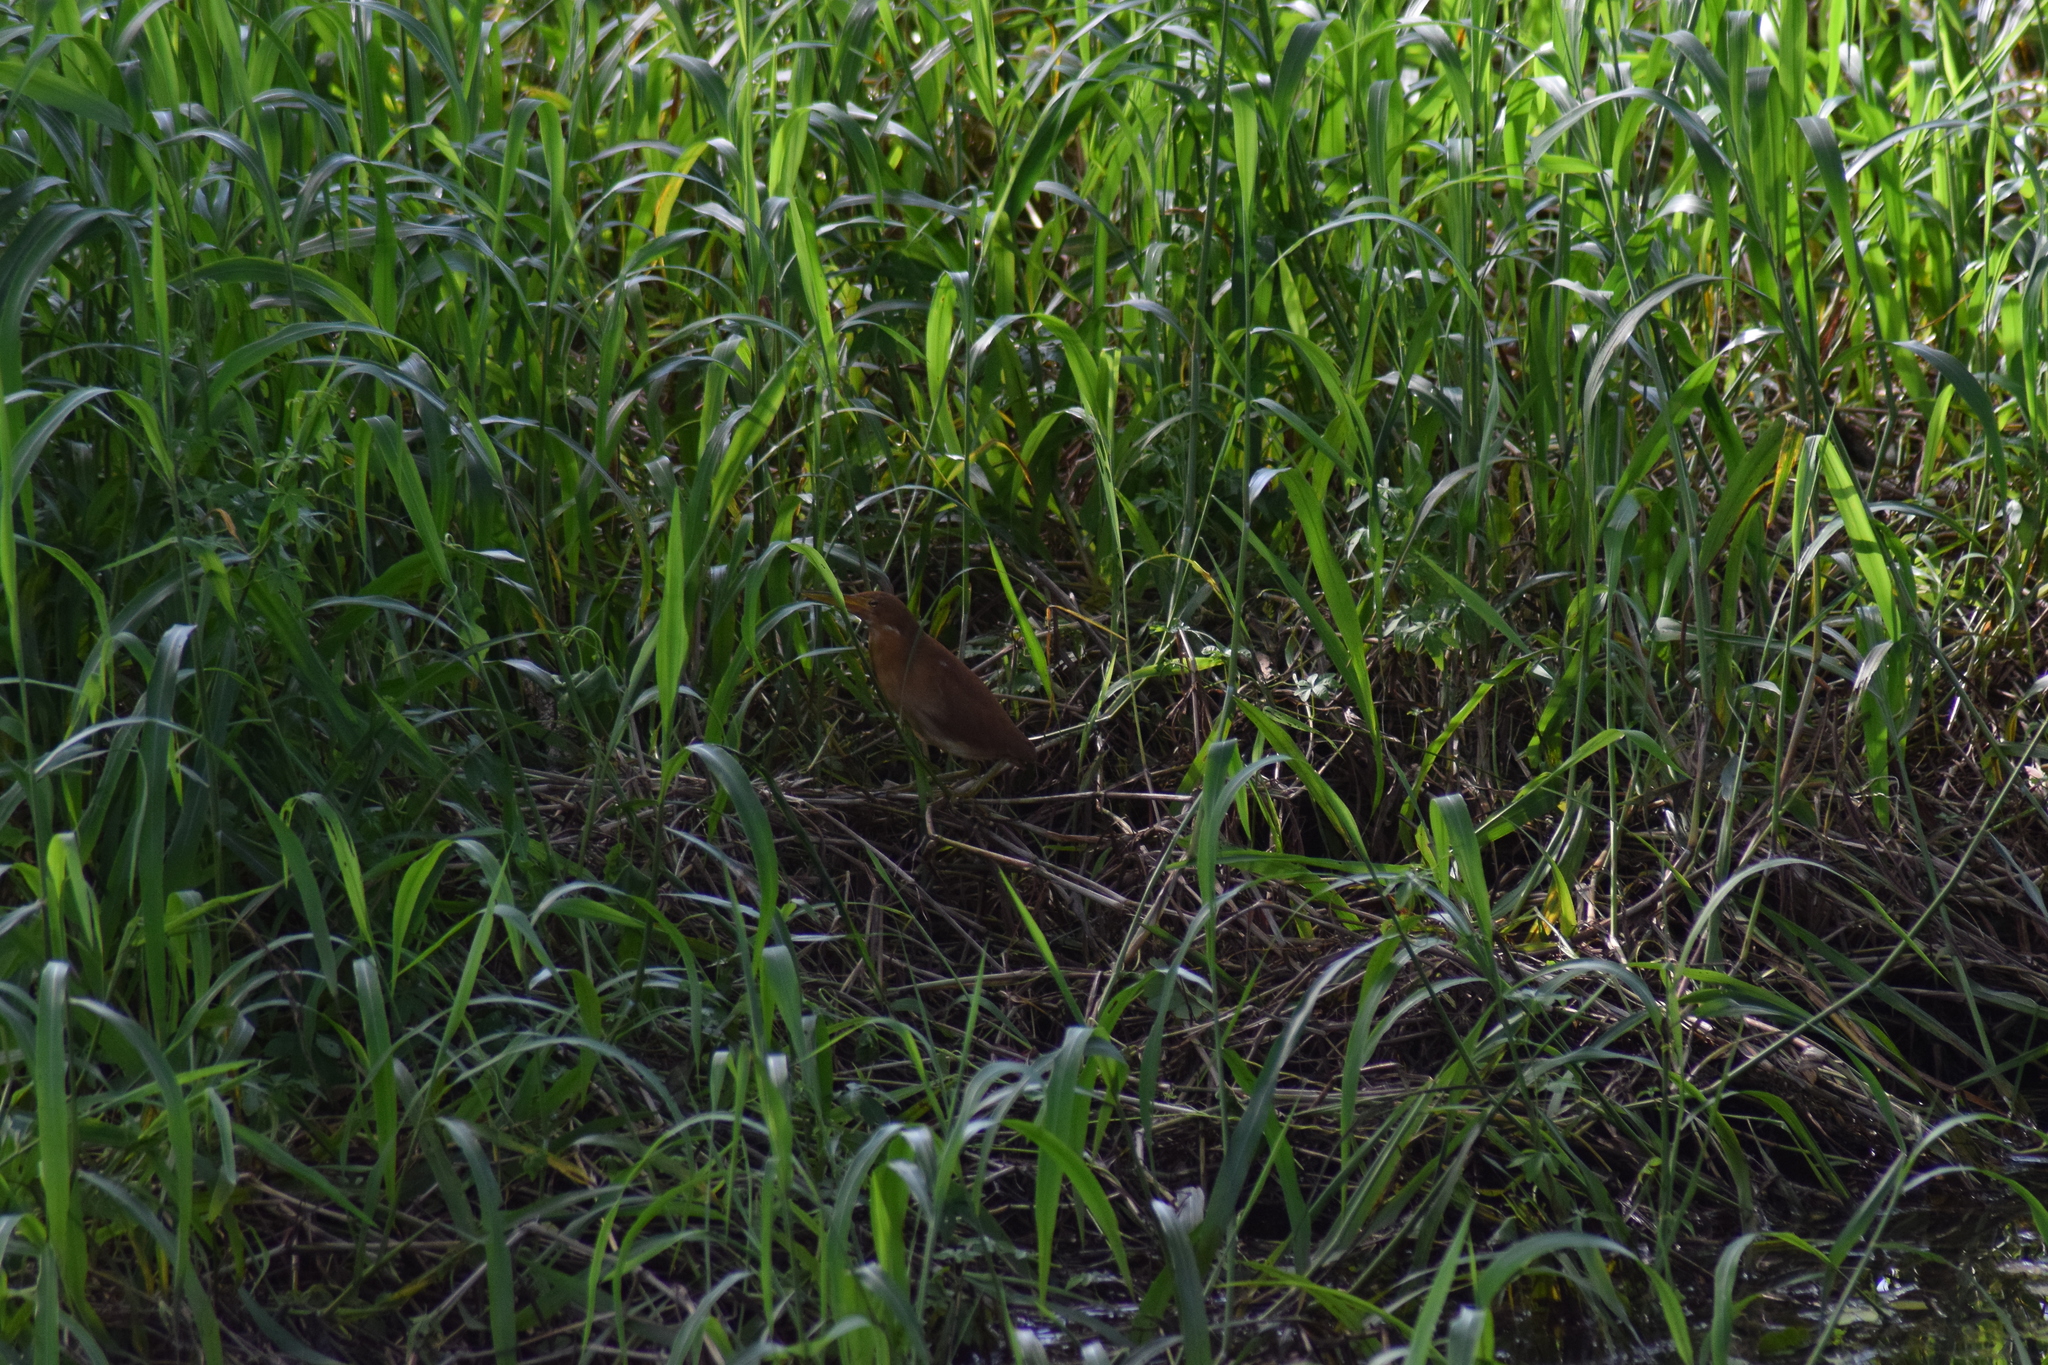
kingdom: Animalia
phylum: Chordata
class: Aves
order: Pelecaniformes
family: Ardeidae
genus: Ixobrychus
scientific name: Ixobrychus cinnamomeus
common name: Cinnamon bittern
